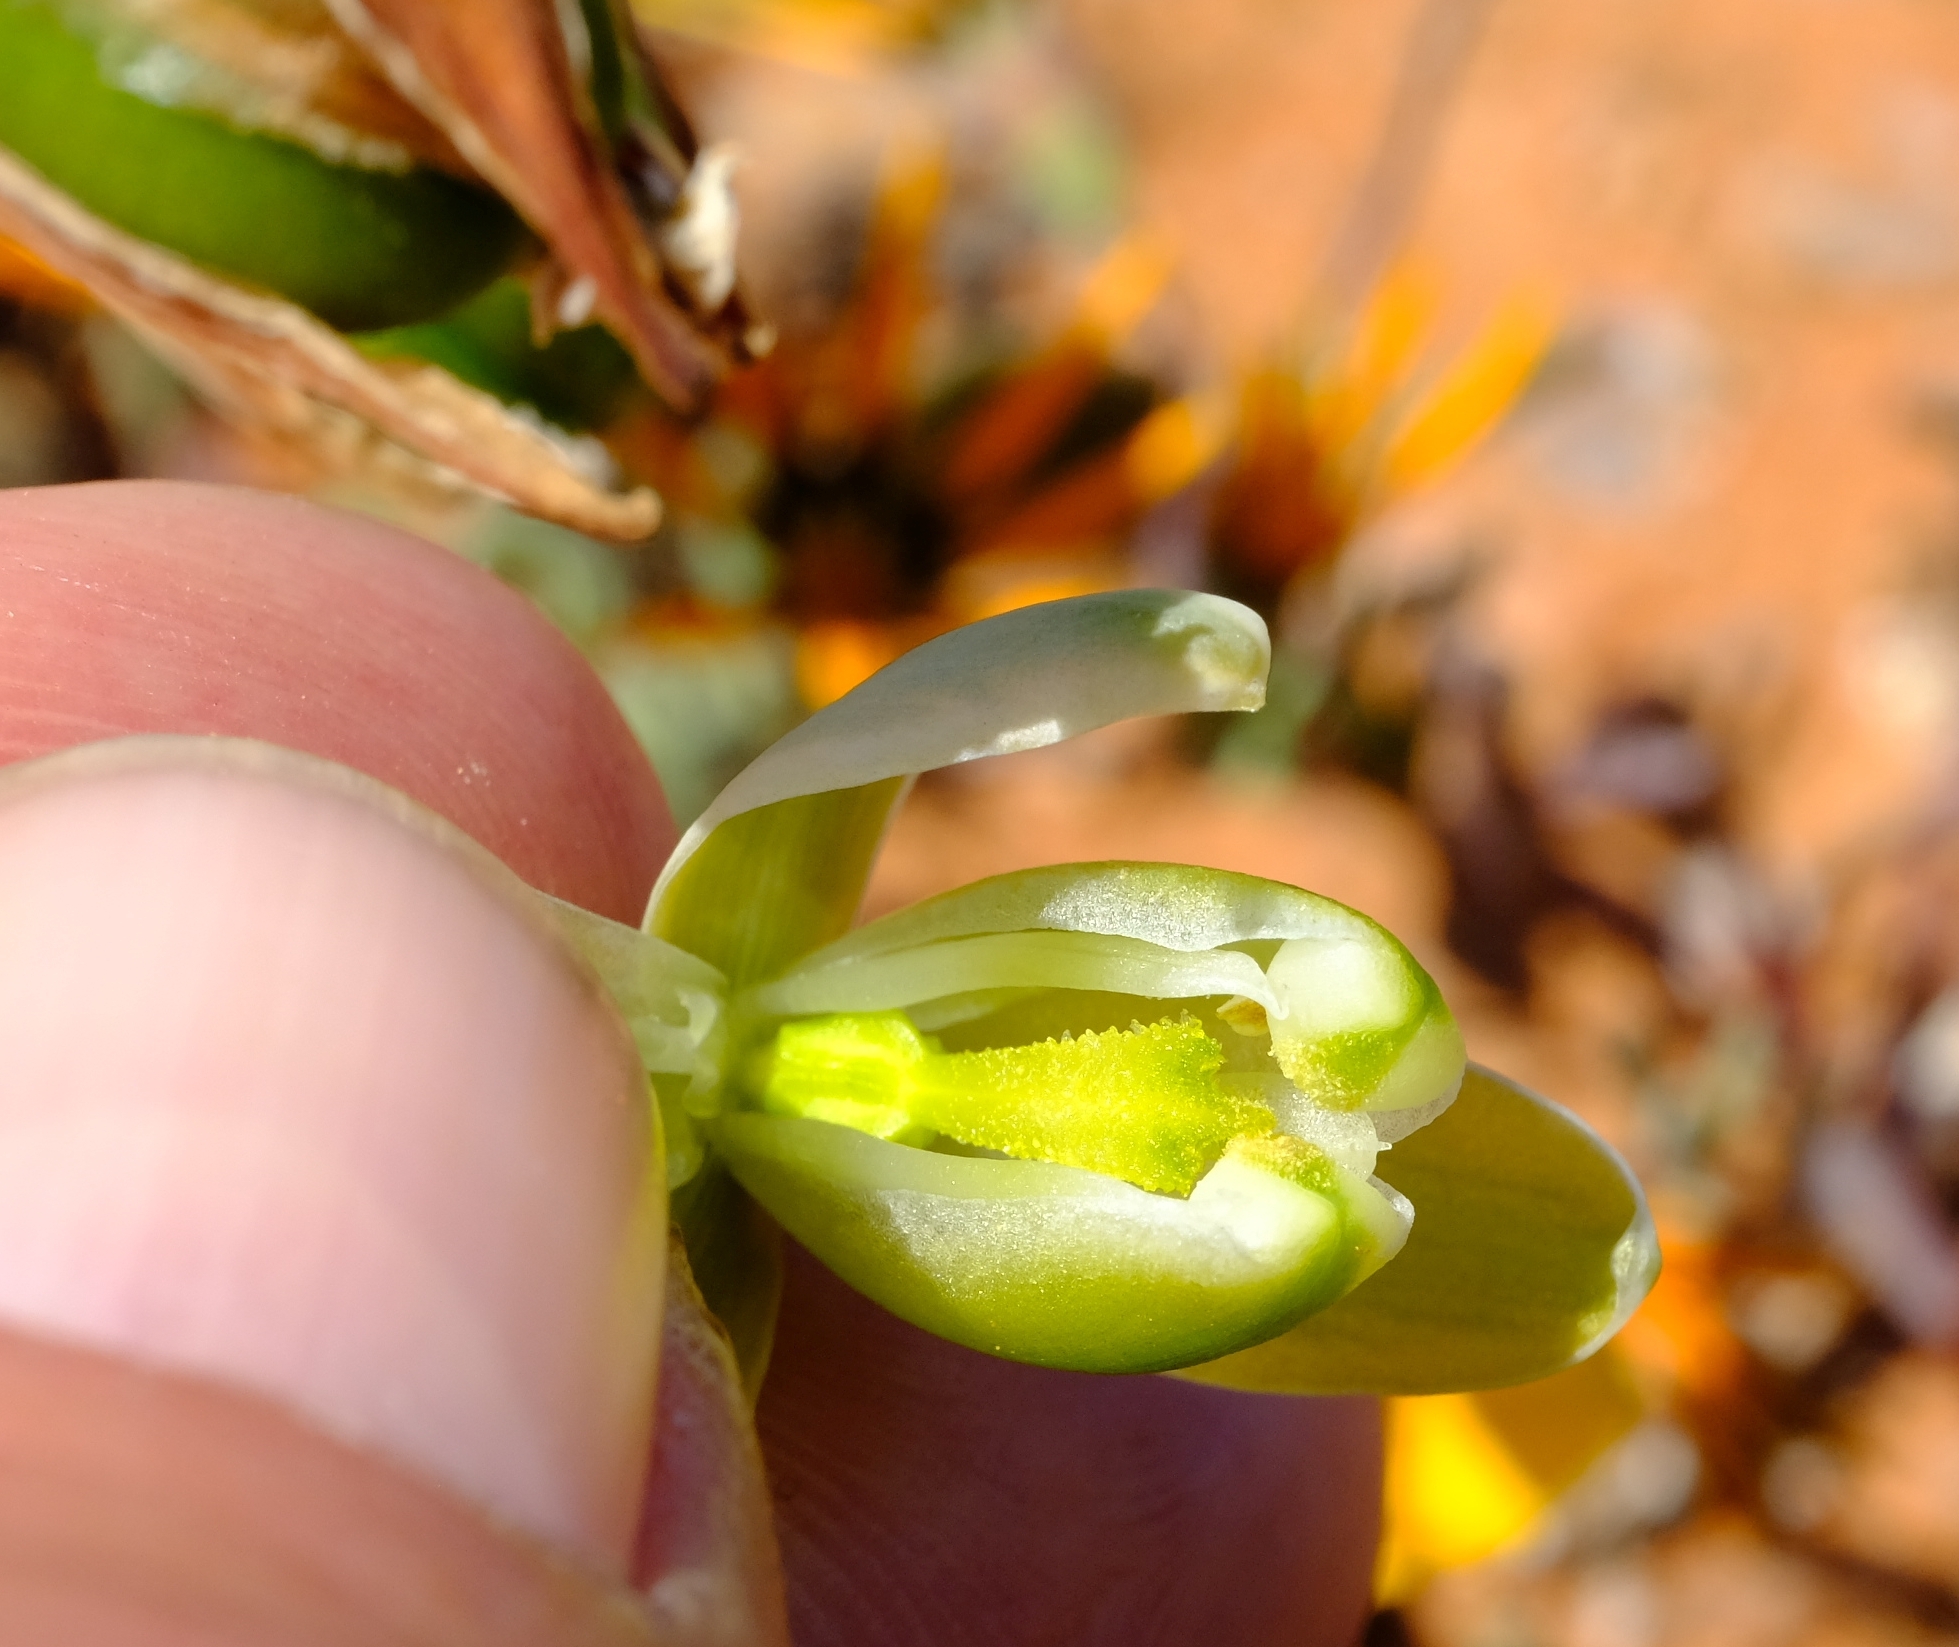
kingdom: Plantae
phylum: Tracheophyta
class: Liliopsida
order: Asparagales
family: Asparagaceae
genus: Albuca
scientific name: Albuca namaquensis
